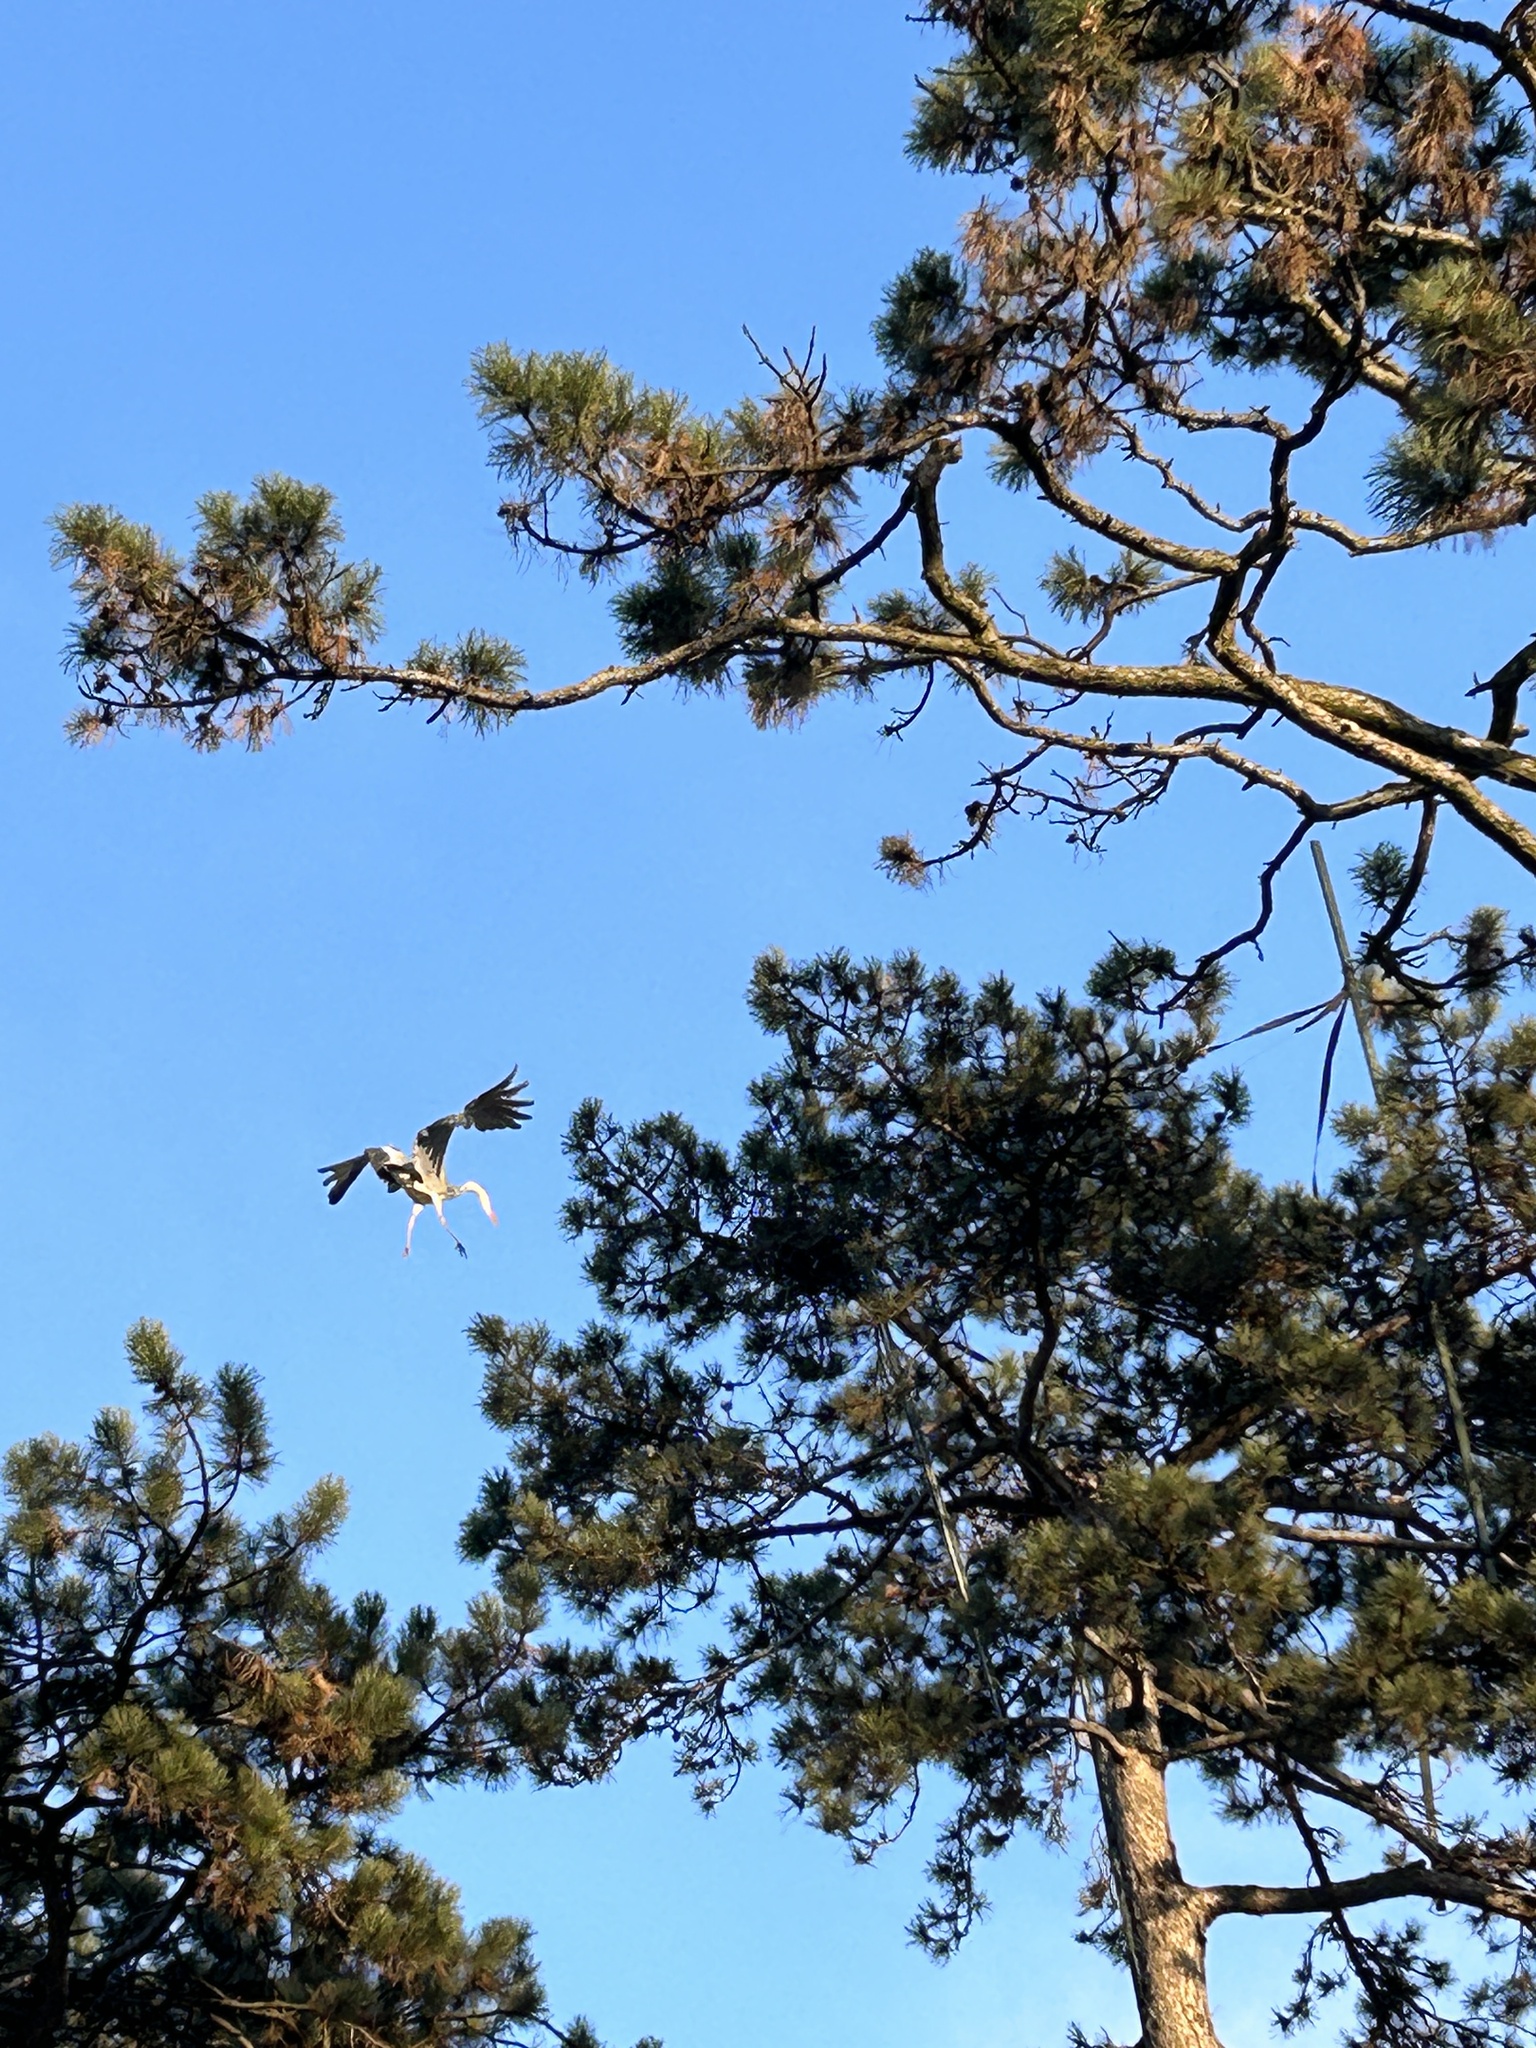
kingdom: Animalia
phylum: Chordata
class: Aves
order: Pelecaniformes
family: Ardeidae
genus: Ardea
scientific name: Ardea cinerea
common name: Grey heron
